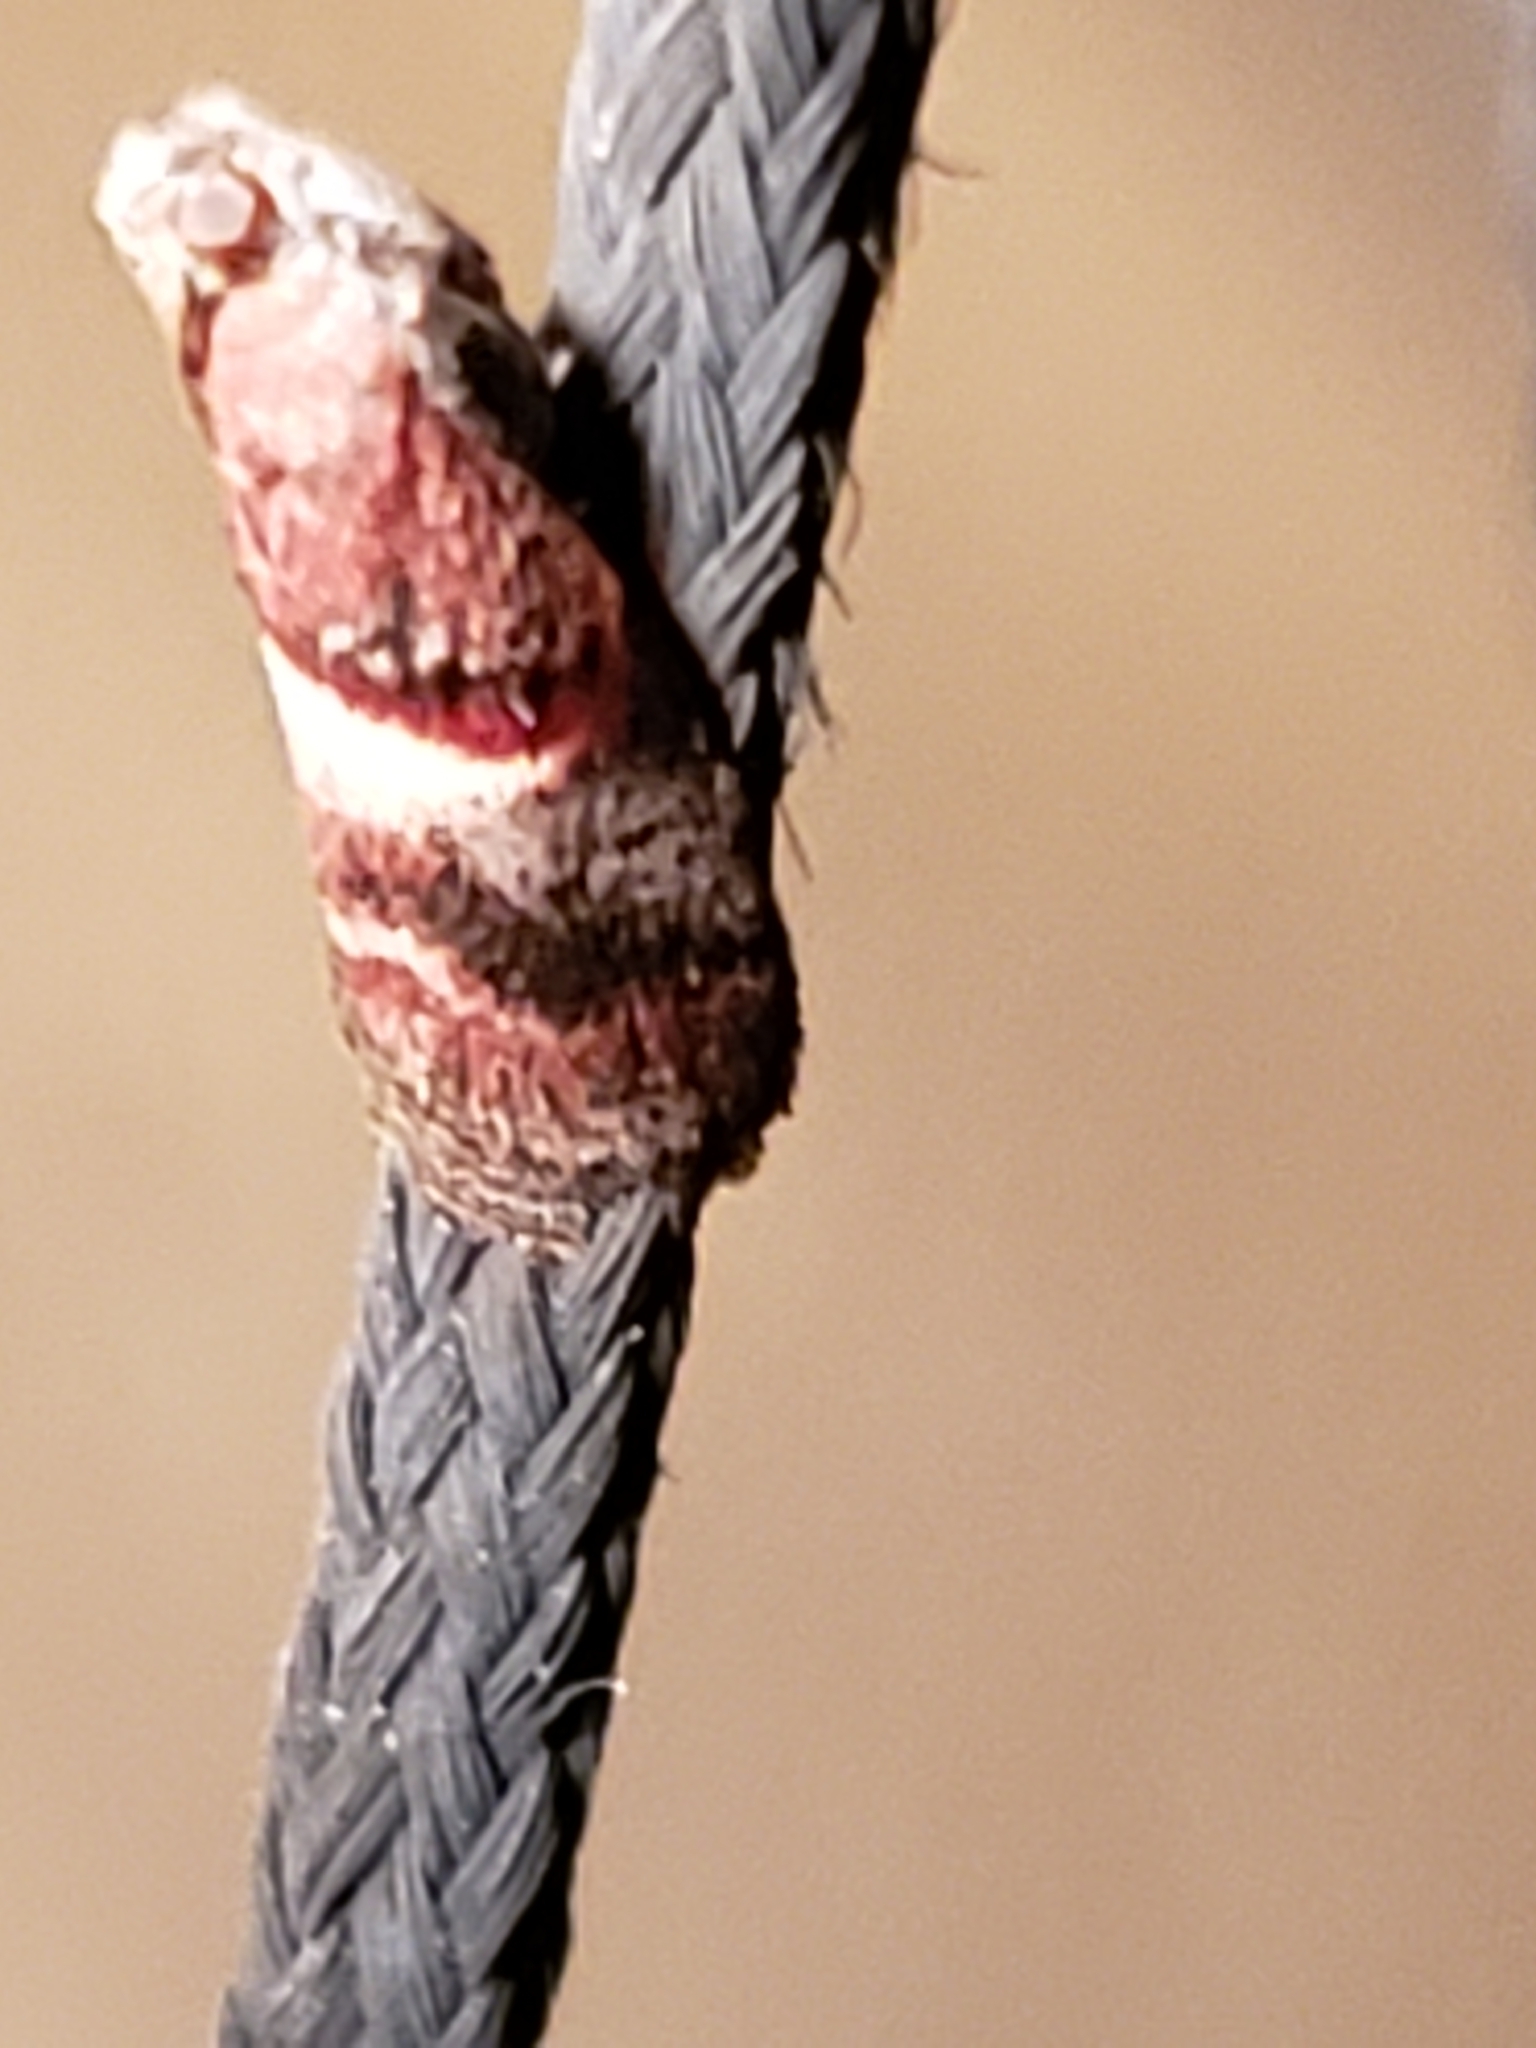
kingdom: Animalia
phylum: Arthropoda
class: Insecta
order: Lepidoptera
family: Pyralidae
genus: Acrobasis
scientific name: Acrobasis exsulella
